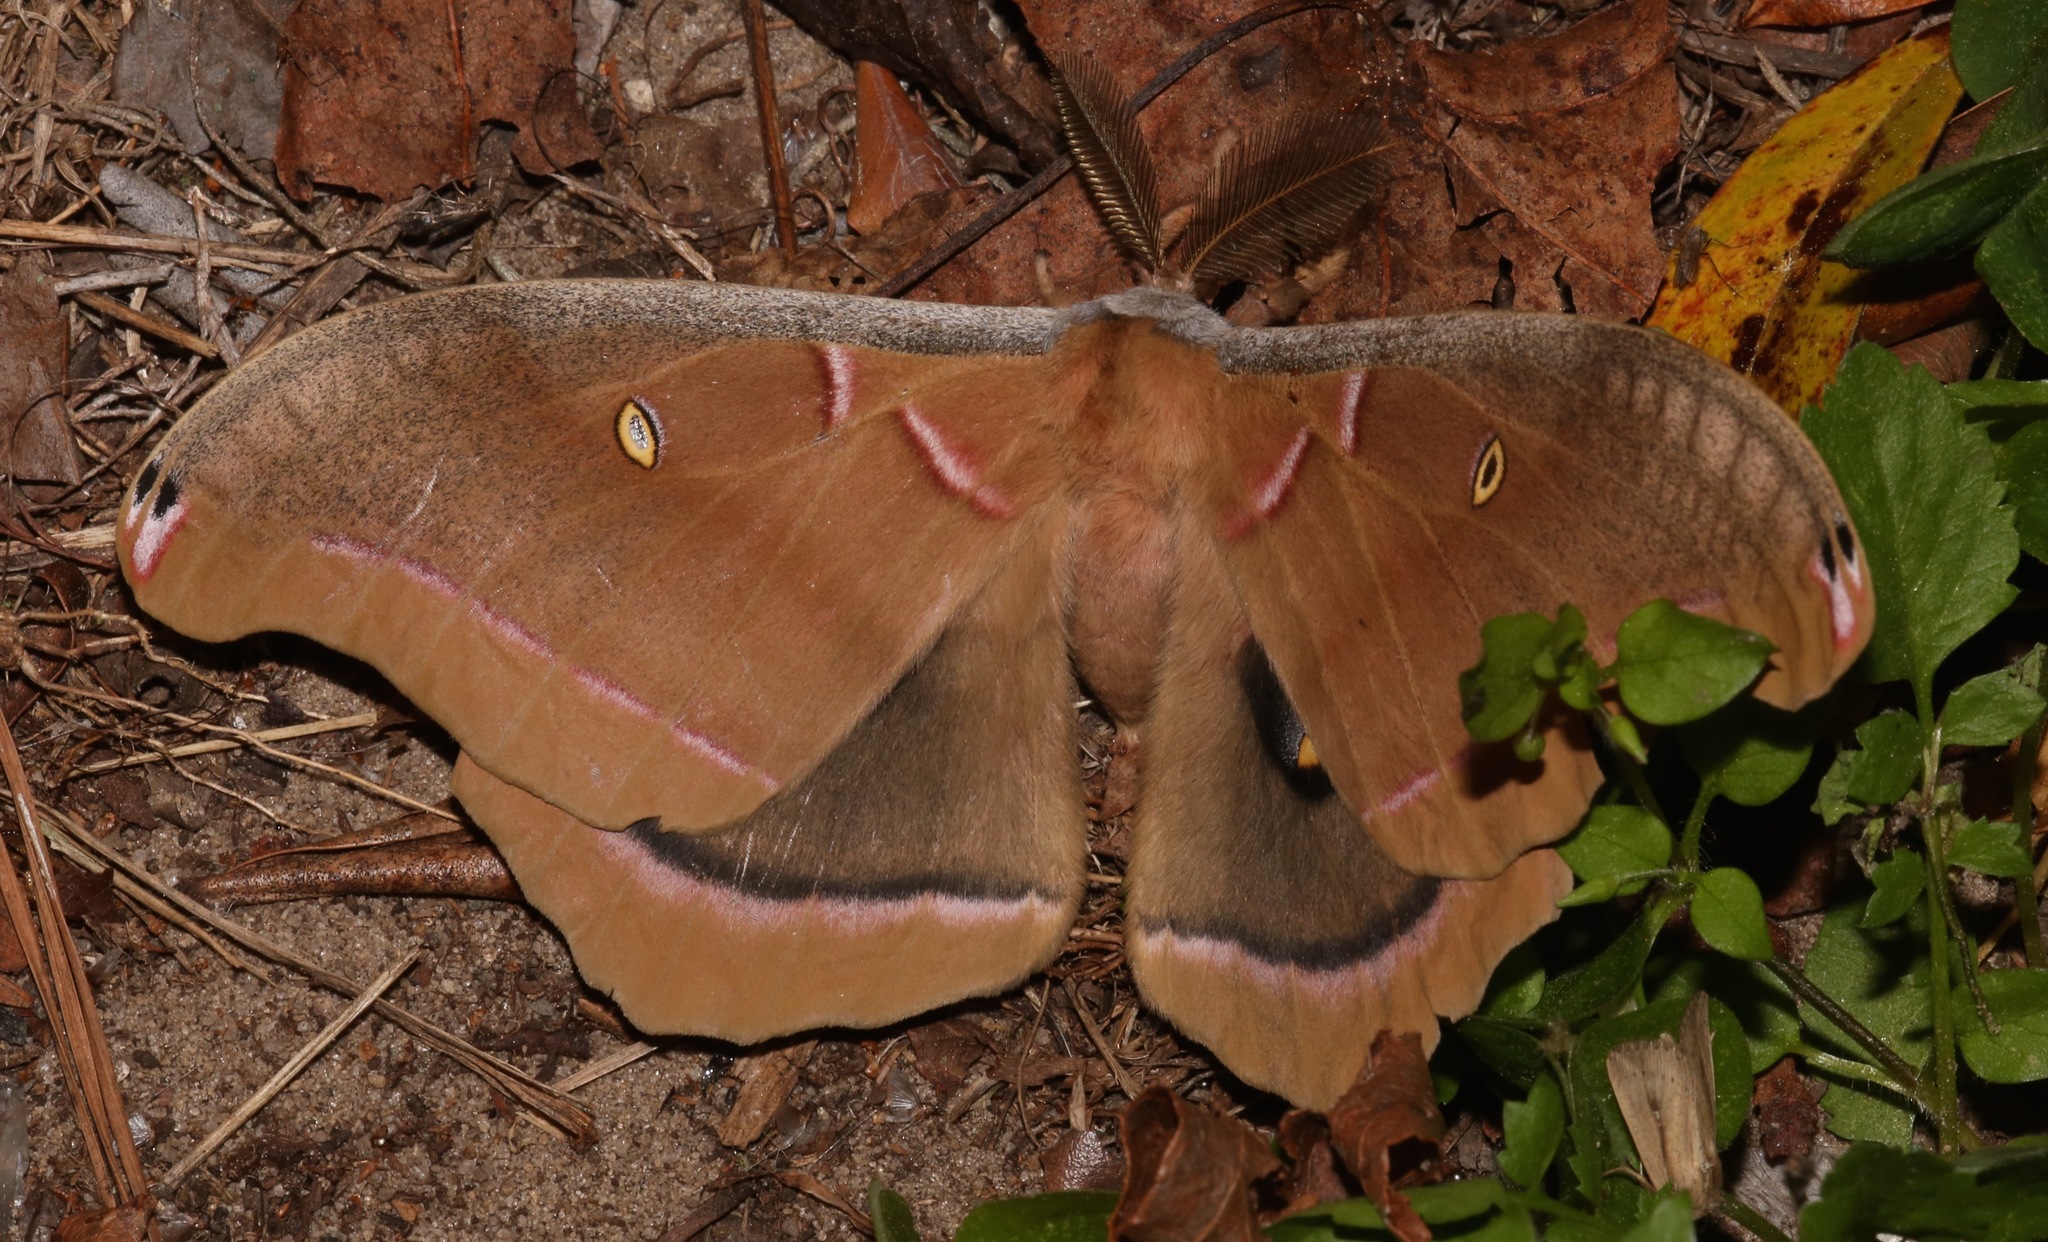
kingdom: Animalia
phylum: Arthropoda
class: Insecta
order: Lepidoptera
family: Saturniidae
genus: Antheraea
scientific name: Antheraea polyphemus
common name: Polyphemus moth
